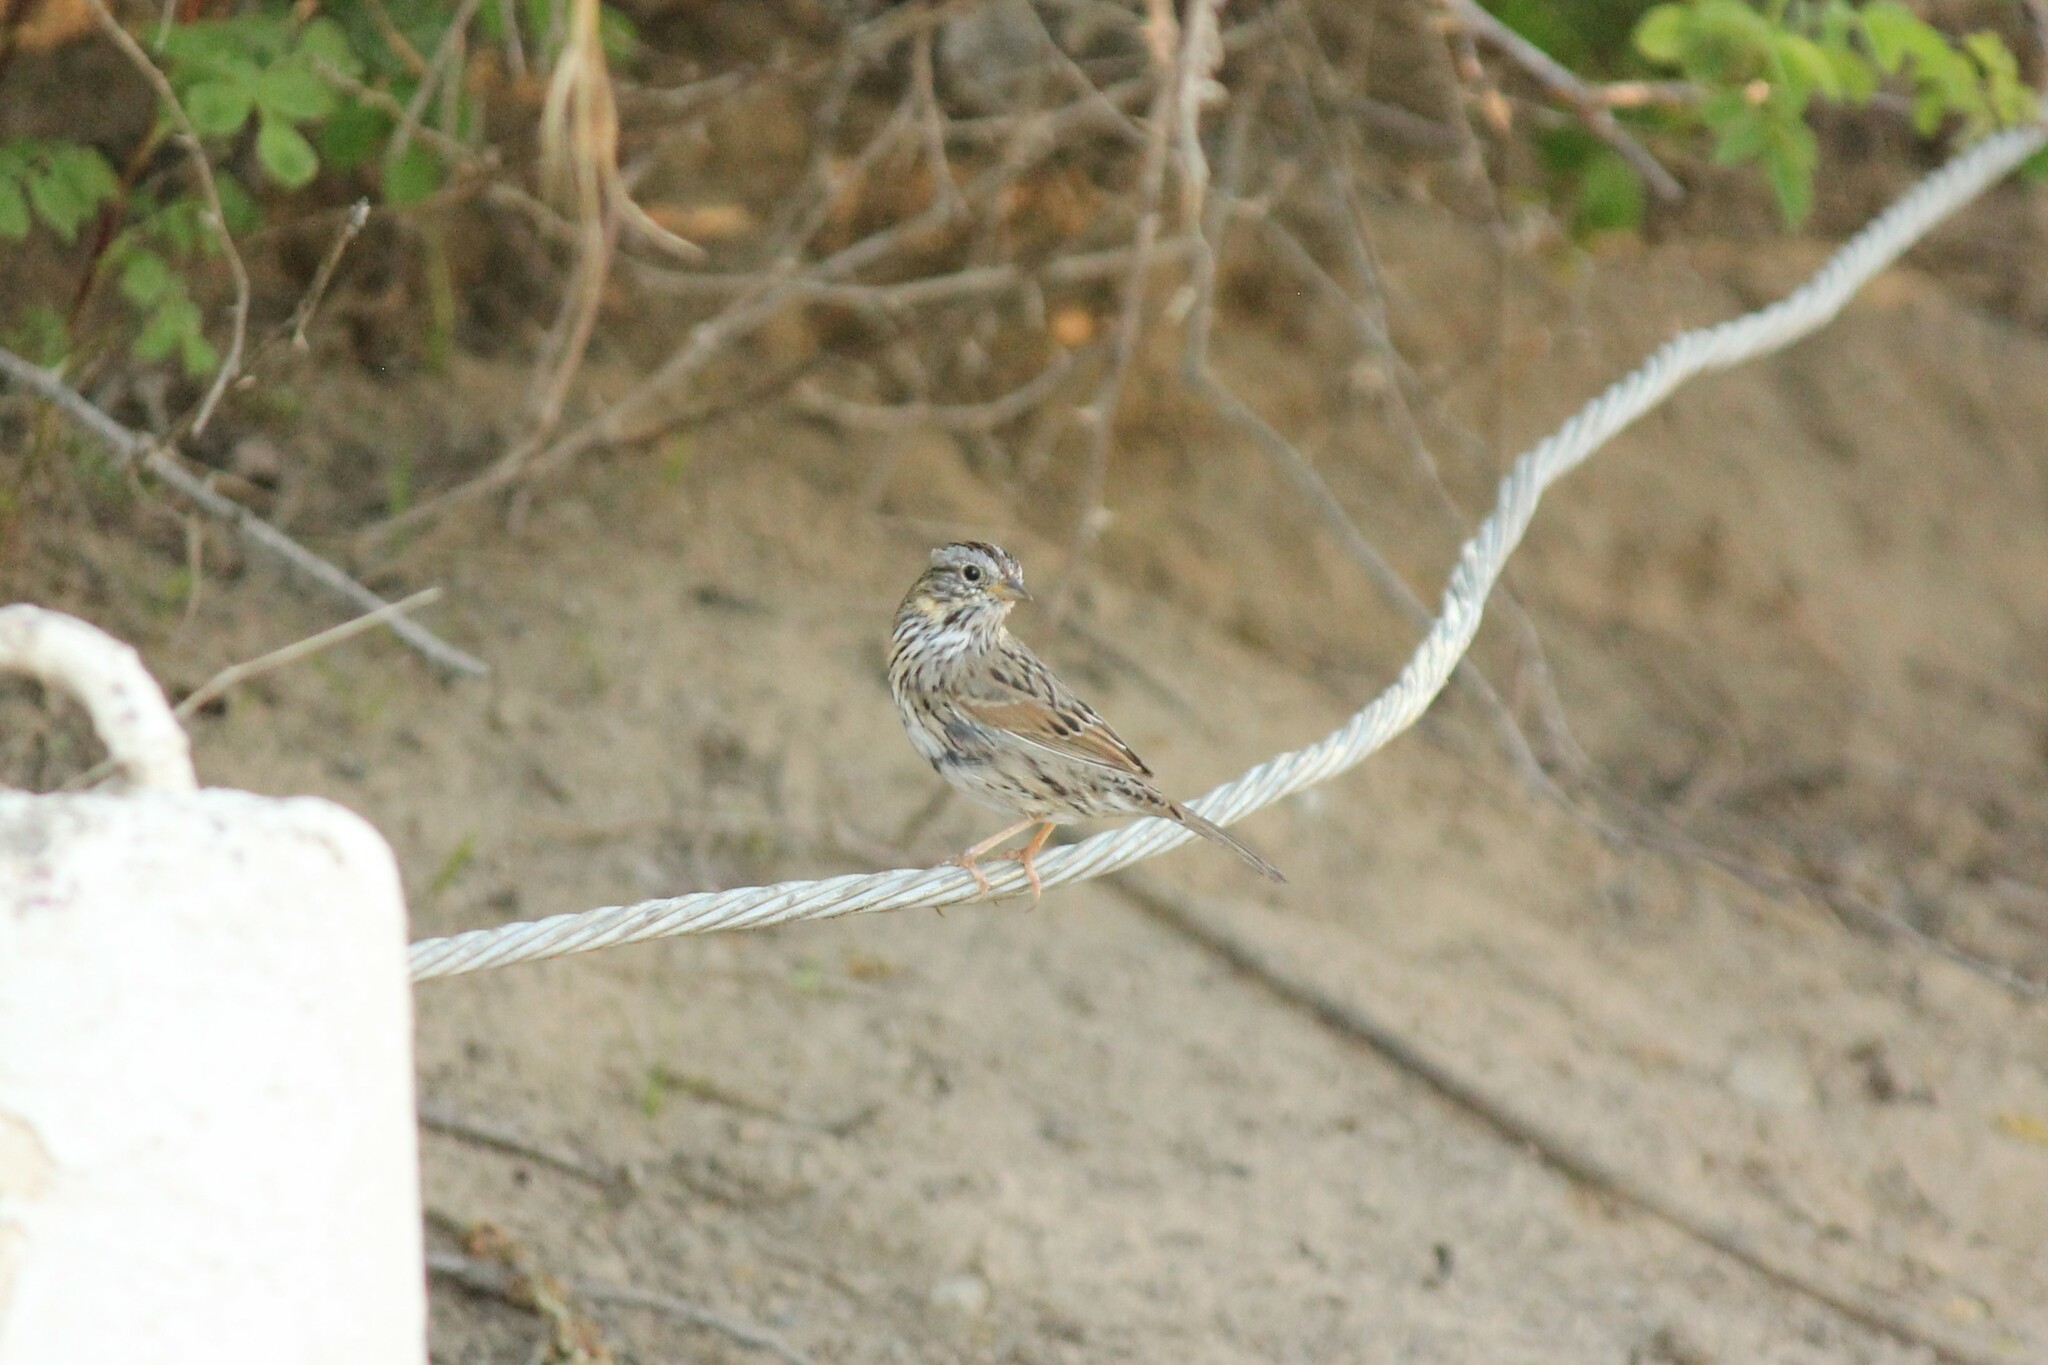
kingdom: Animalia
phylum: Chordata
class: Aves
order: Passeriformes
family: Passerellidae
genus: Melospiza
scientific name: Melospiza lincolnii
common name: Lincoln's sparrow
